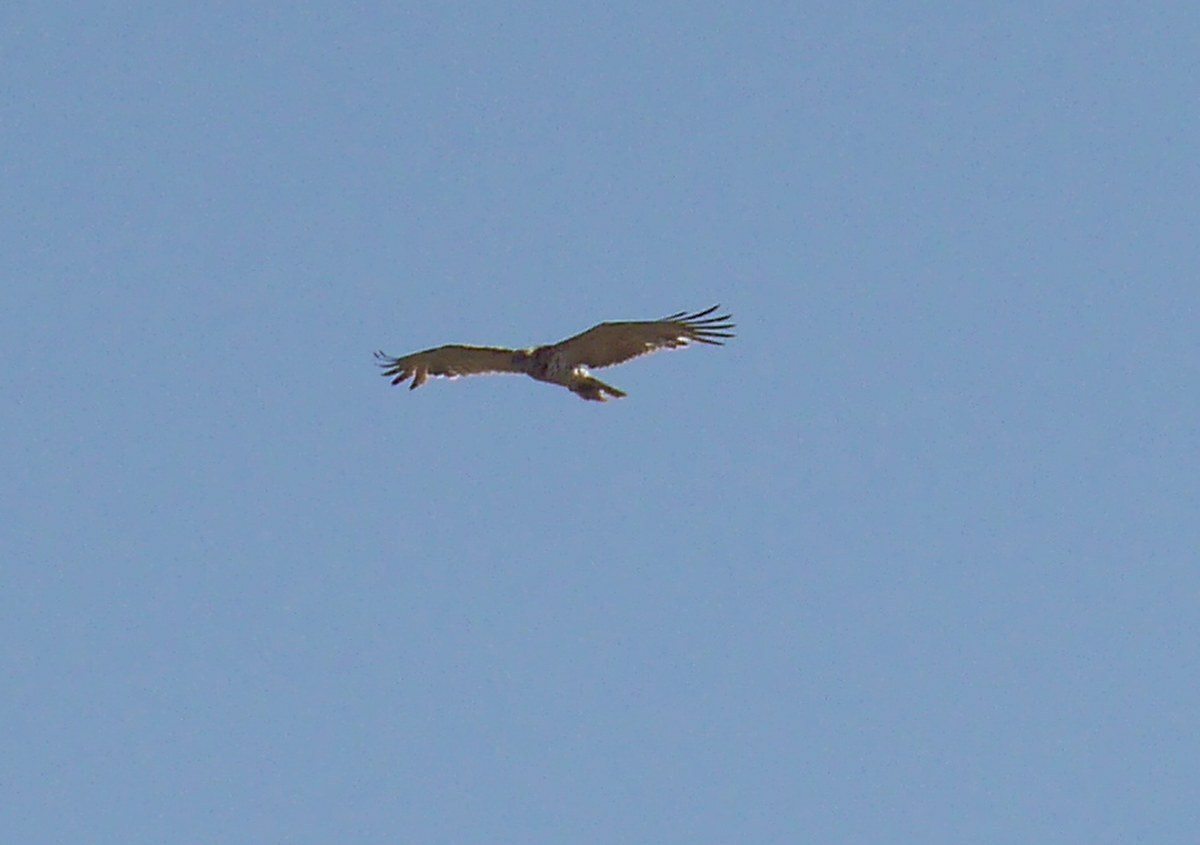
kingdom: Animalia
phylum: Chordata
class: Aves
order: Accipitriformes
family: Accipitridae
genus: Circaetus
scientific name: Circaetus gallicus
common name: Short-toed snake eagle
